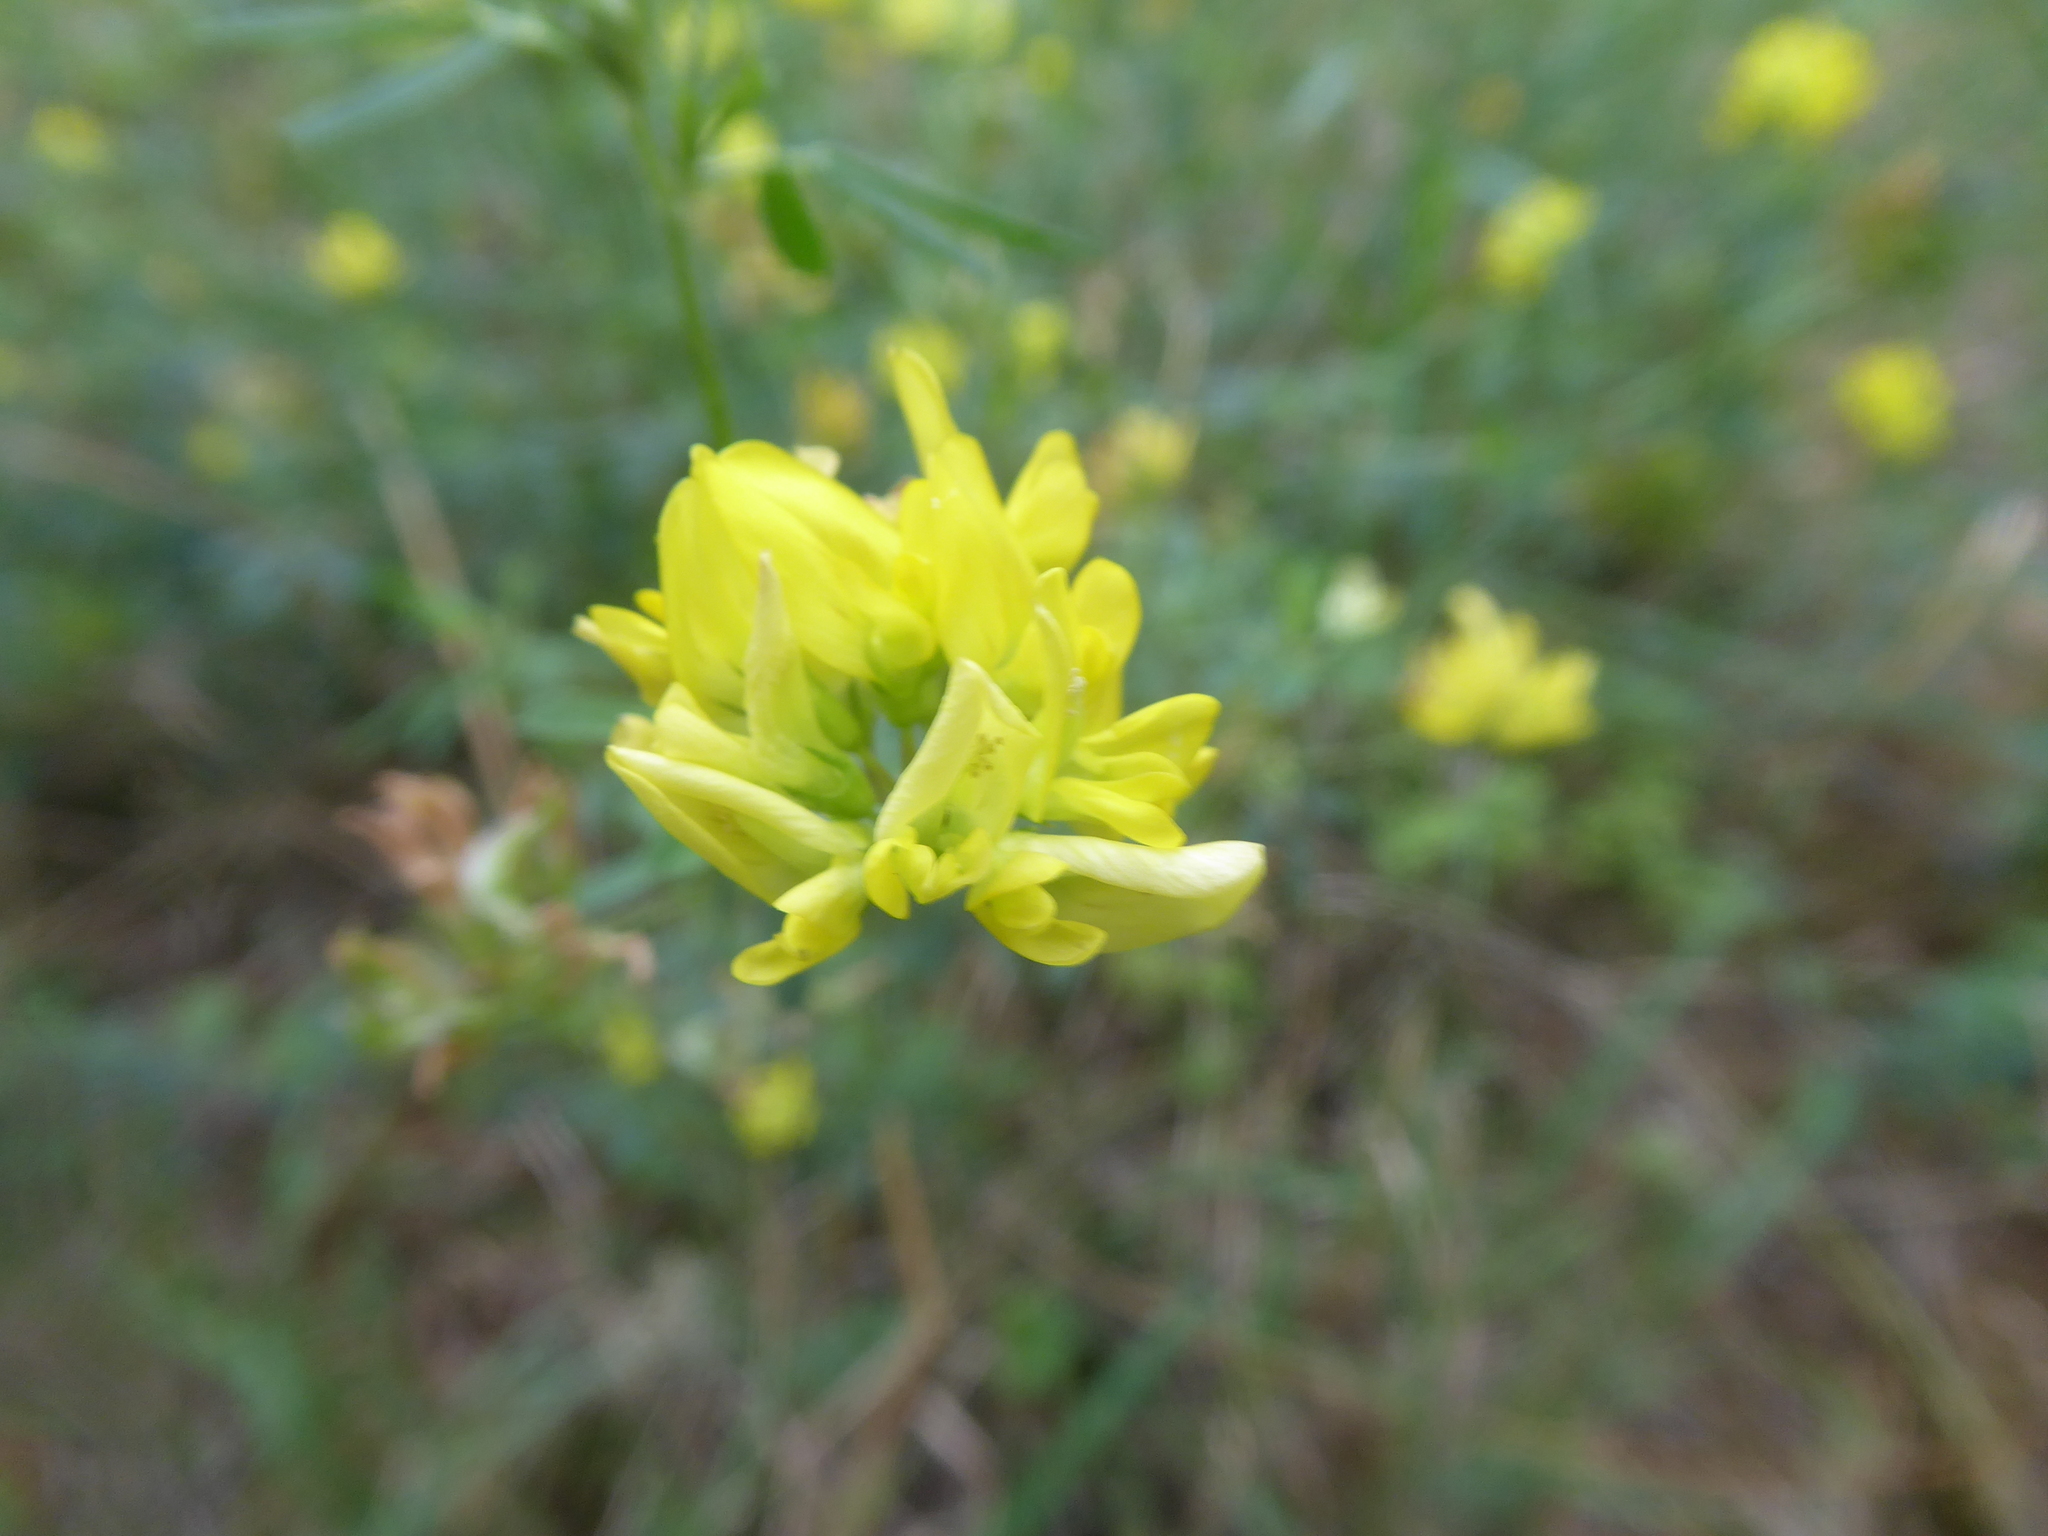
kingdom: Plantae
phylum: Tracheophyta
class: Magnoliopsida
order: Fabales
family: Fabaceae
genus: Medicago
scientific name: Medicago falcata
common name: Sickle medick
